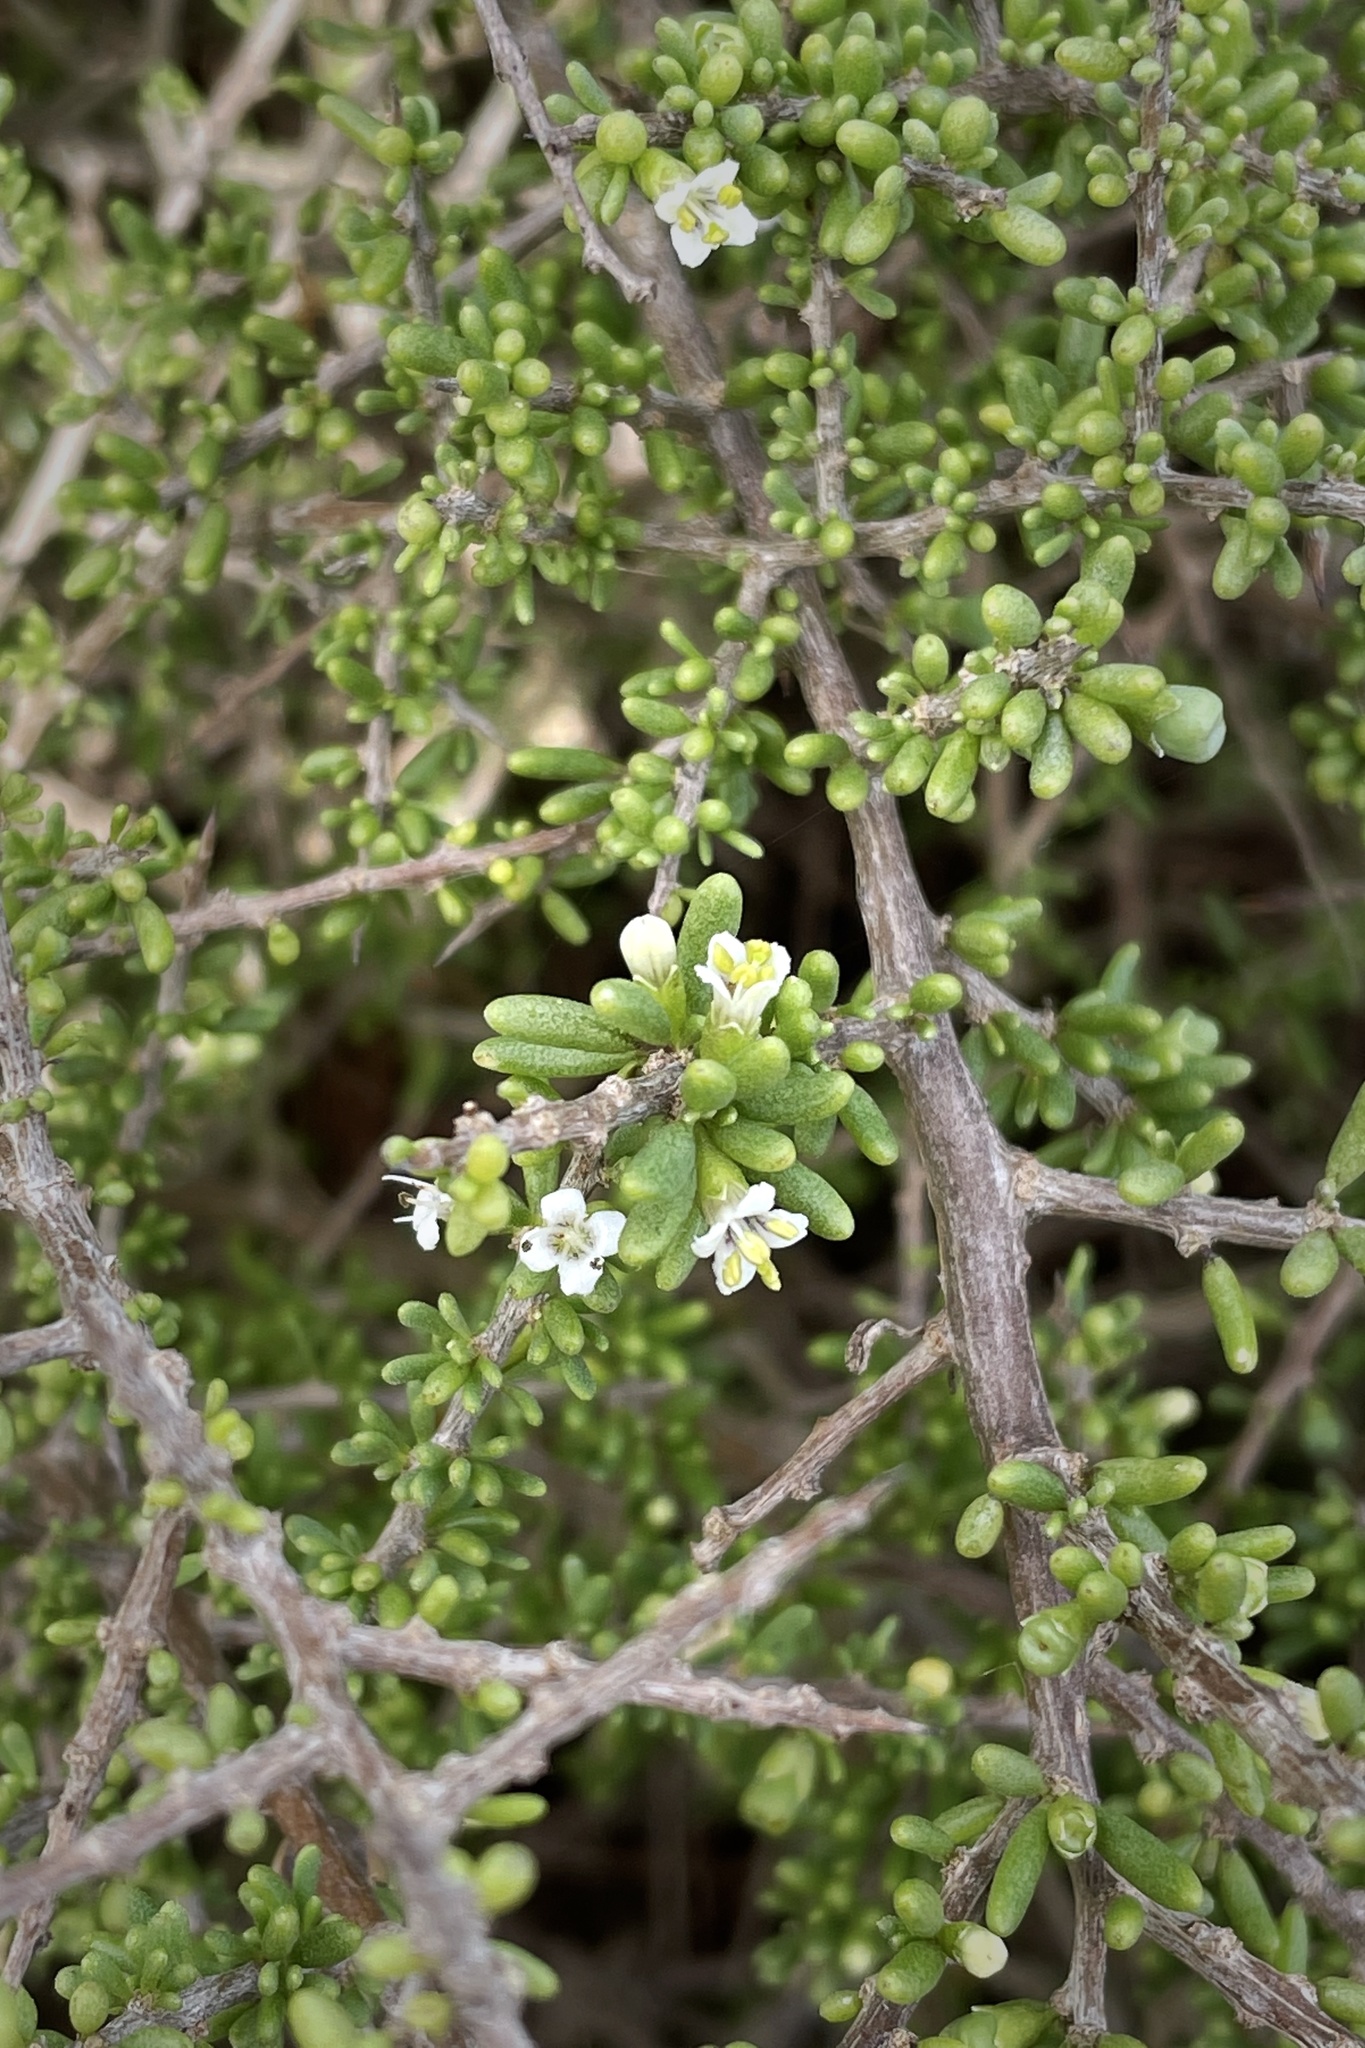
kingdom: Plantae
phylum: Tracheophyta
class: Magnoliopsida
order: Solanales
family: Solanaceae
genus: Lycium
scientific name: Lycium californicum
